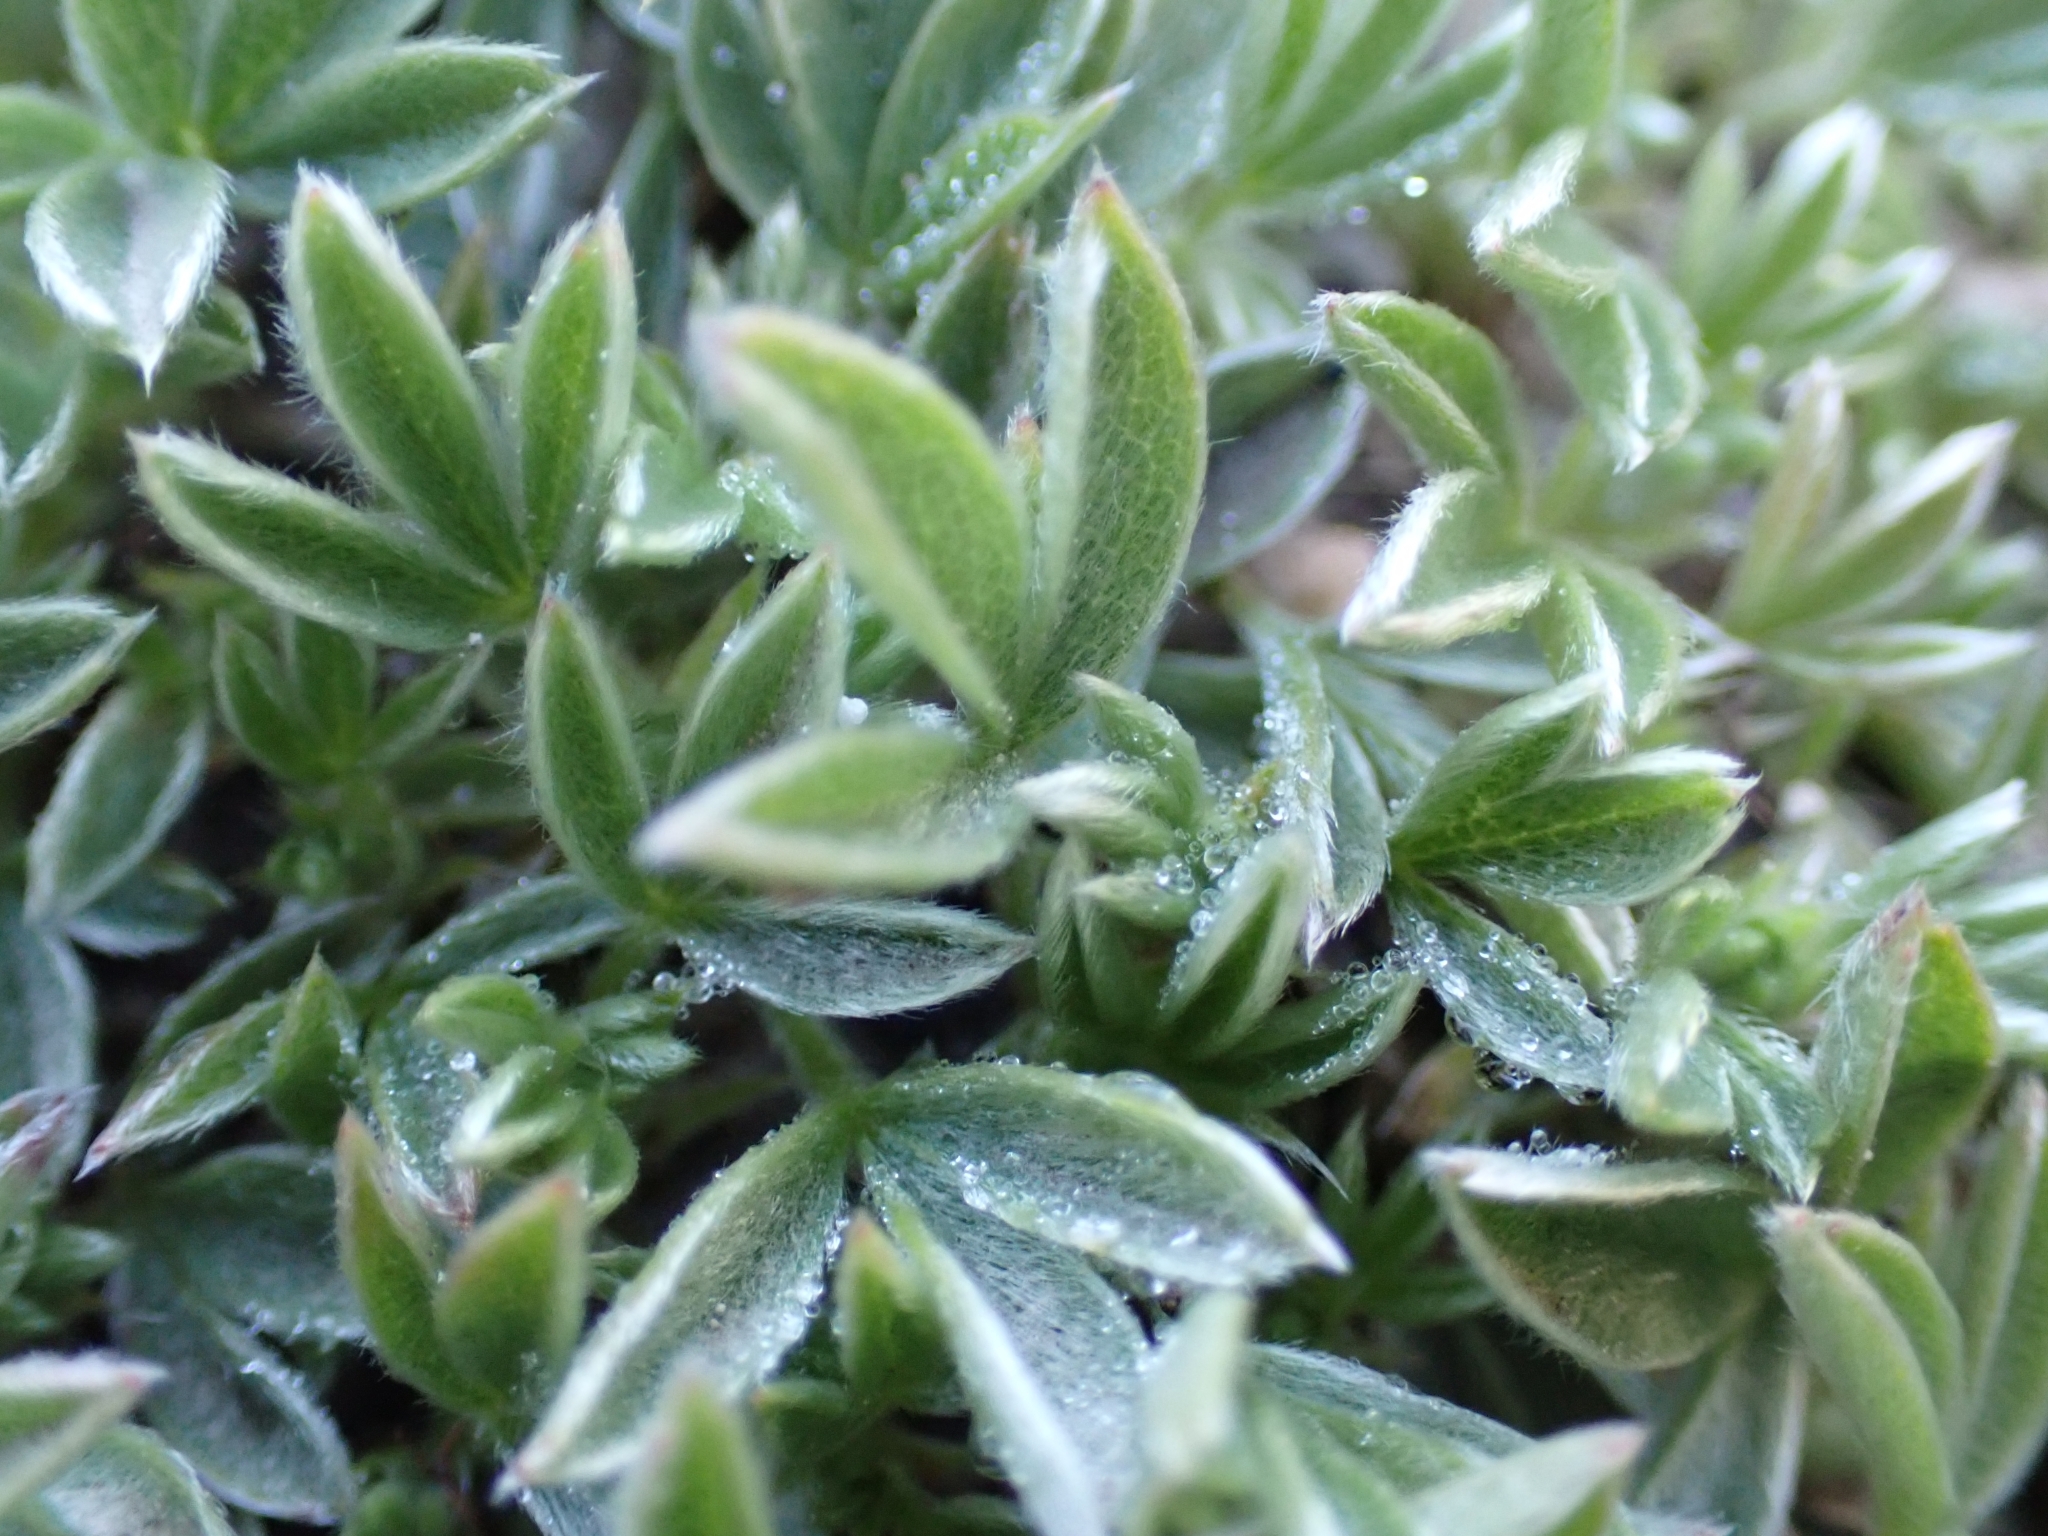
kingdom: Plantae
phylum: Tracheophyta
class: Magnoliopsida
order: Rosales
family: Rosaceae
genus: Potentilla
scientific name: Potentilla nitida
